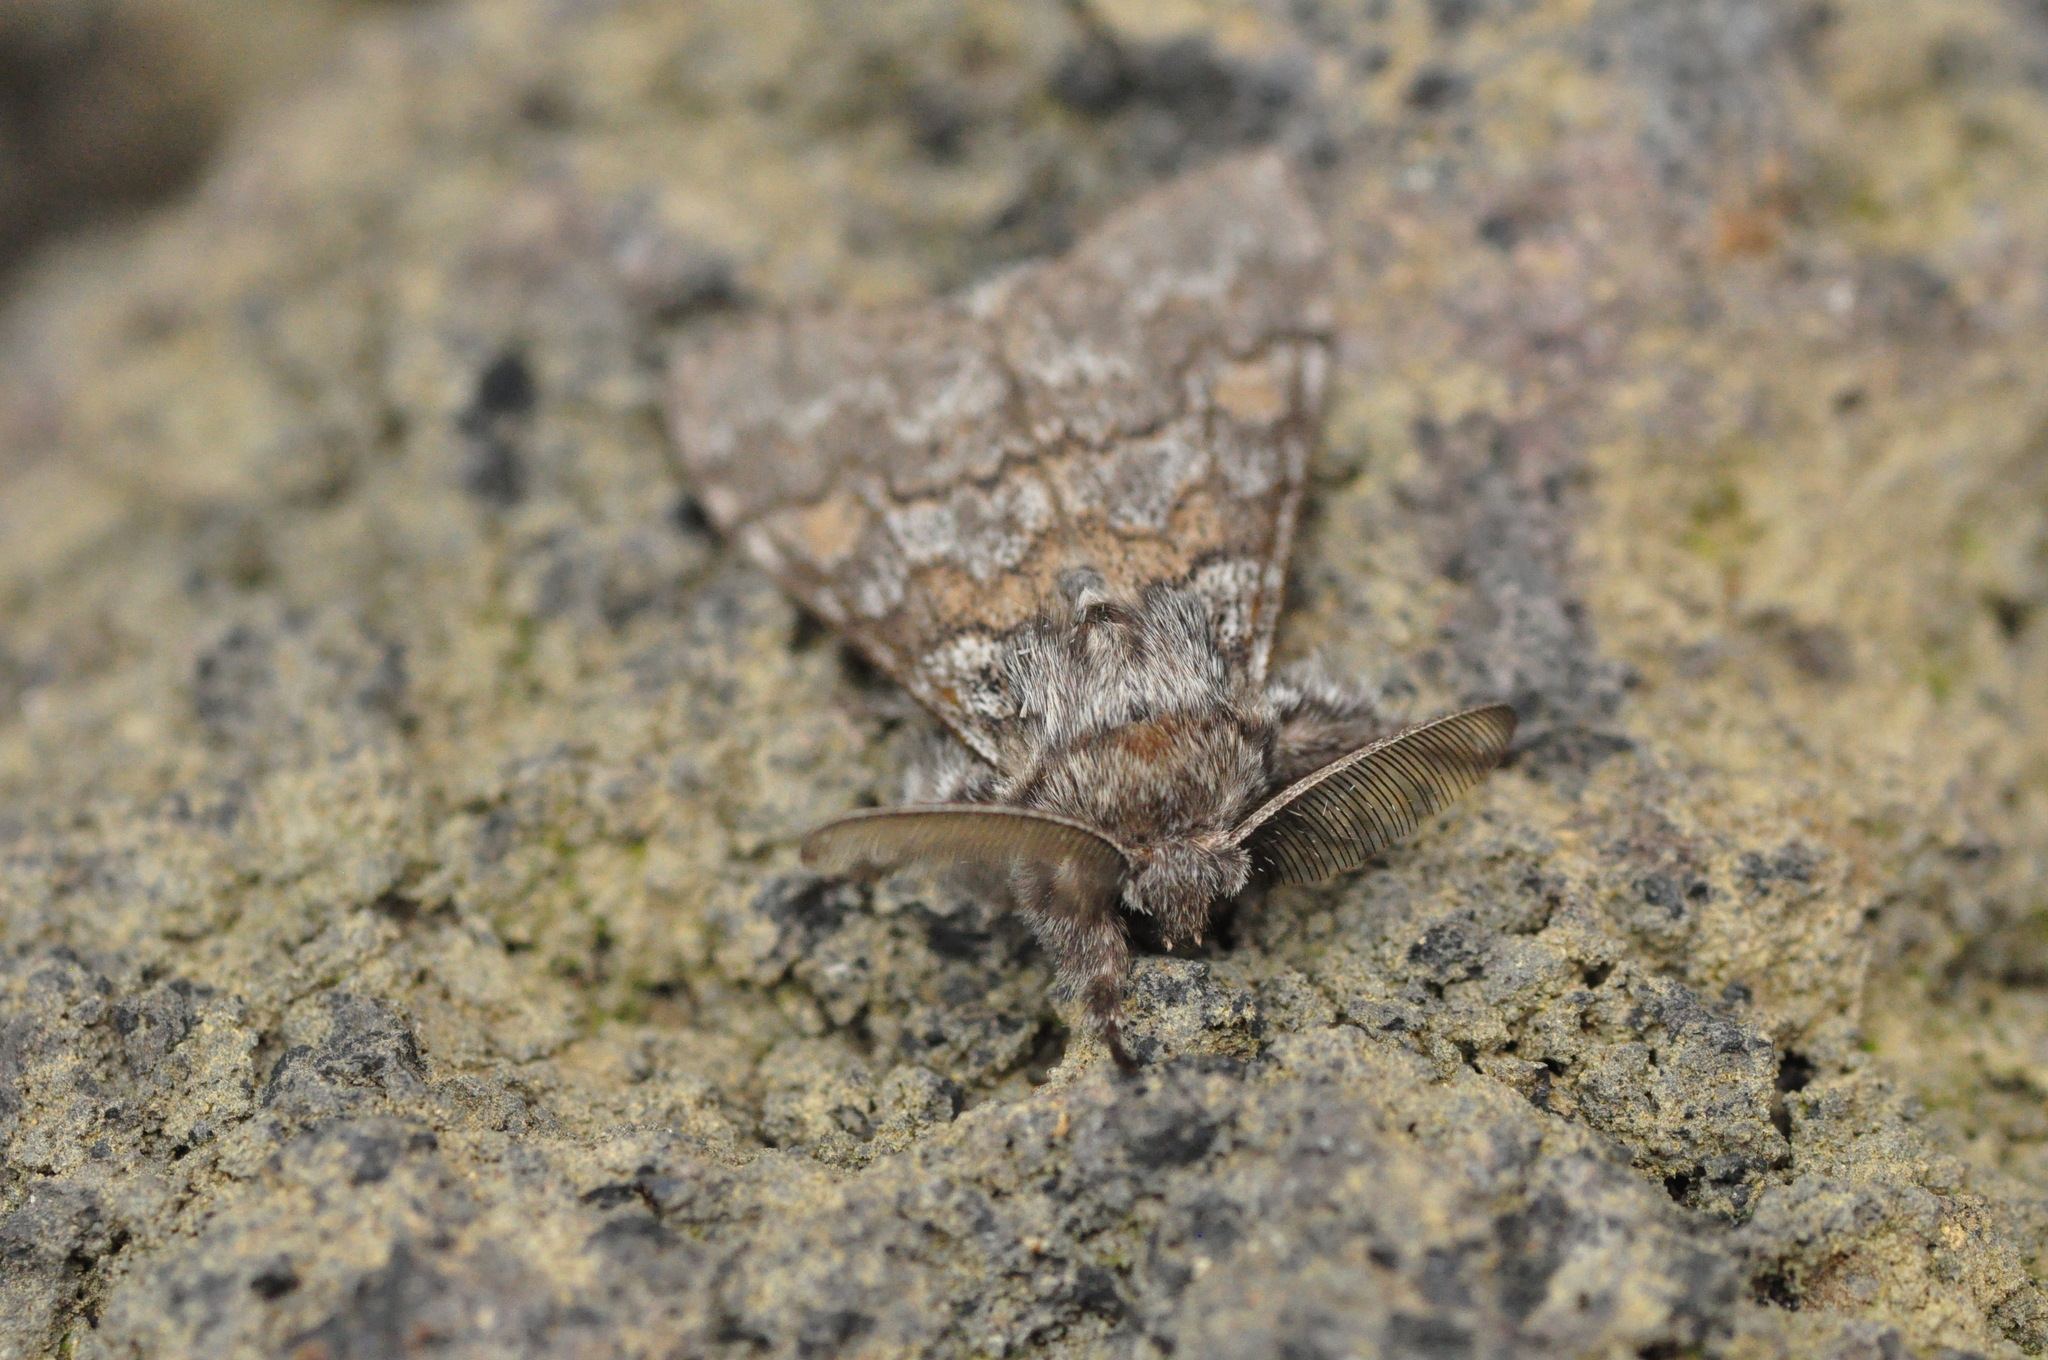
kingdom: Animalia
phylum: Arthropoda
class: Insecta
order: Lepidoptera
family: Erebidae
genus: Calliteara
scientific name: Calliteara
